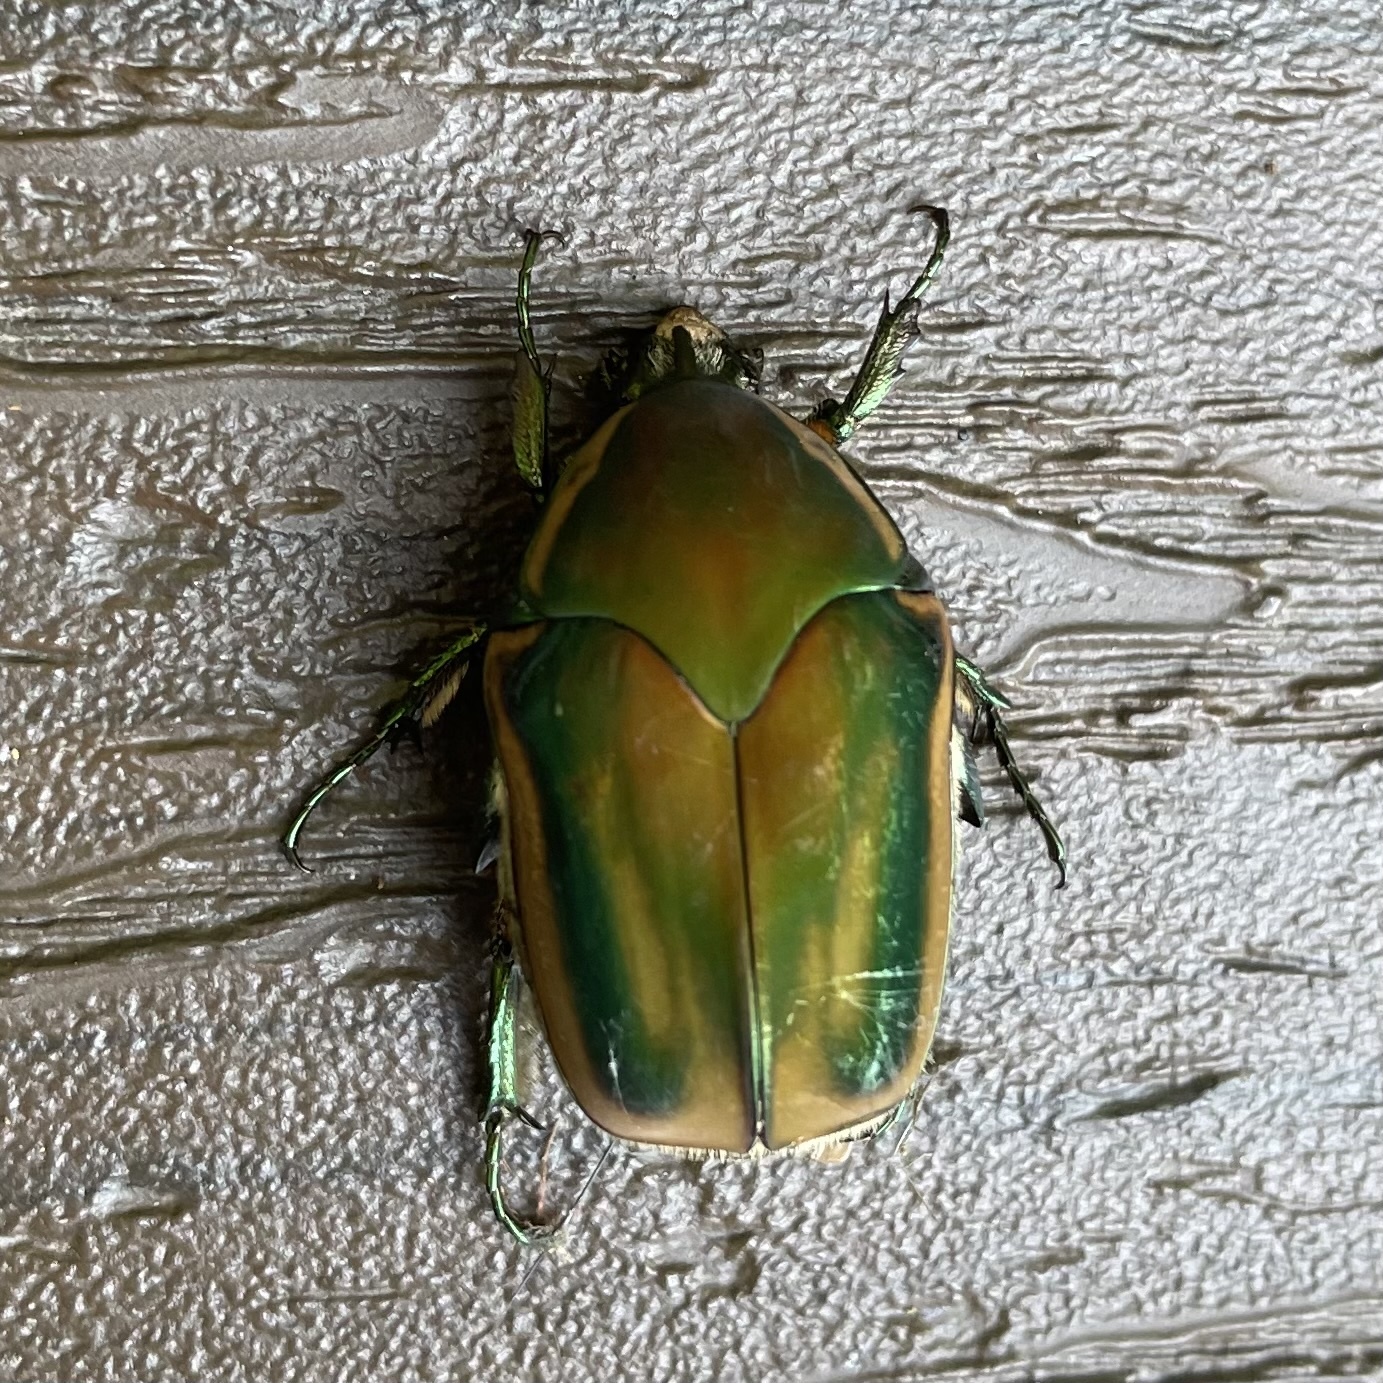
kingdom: Animalia
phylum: Arthropoda
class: Insecta
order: Coleoptera
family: Scarabaeidae
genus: Cotinis
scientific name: Cotinis nitida
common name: Common green june beetle
